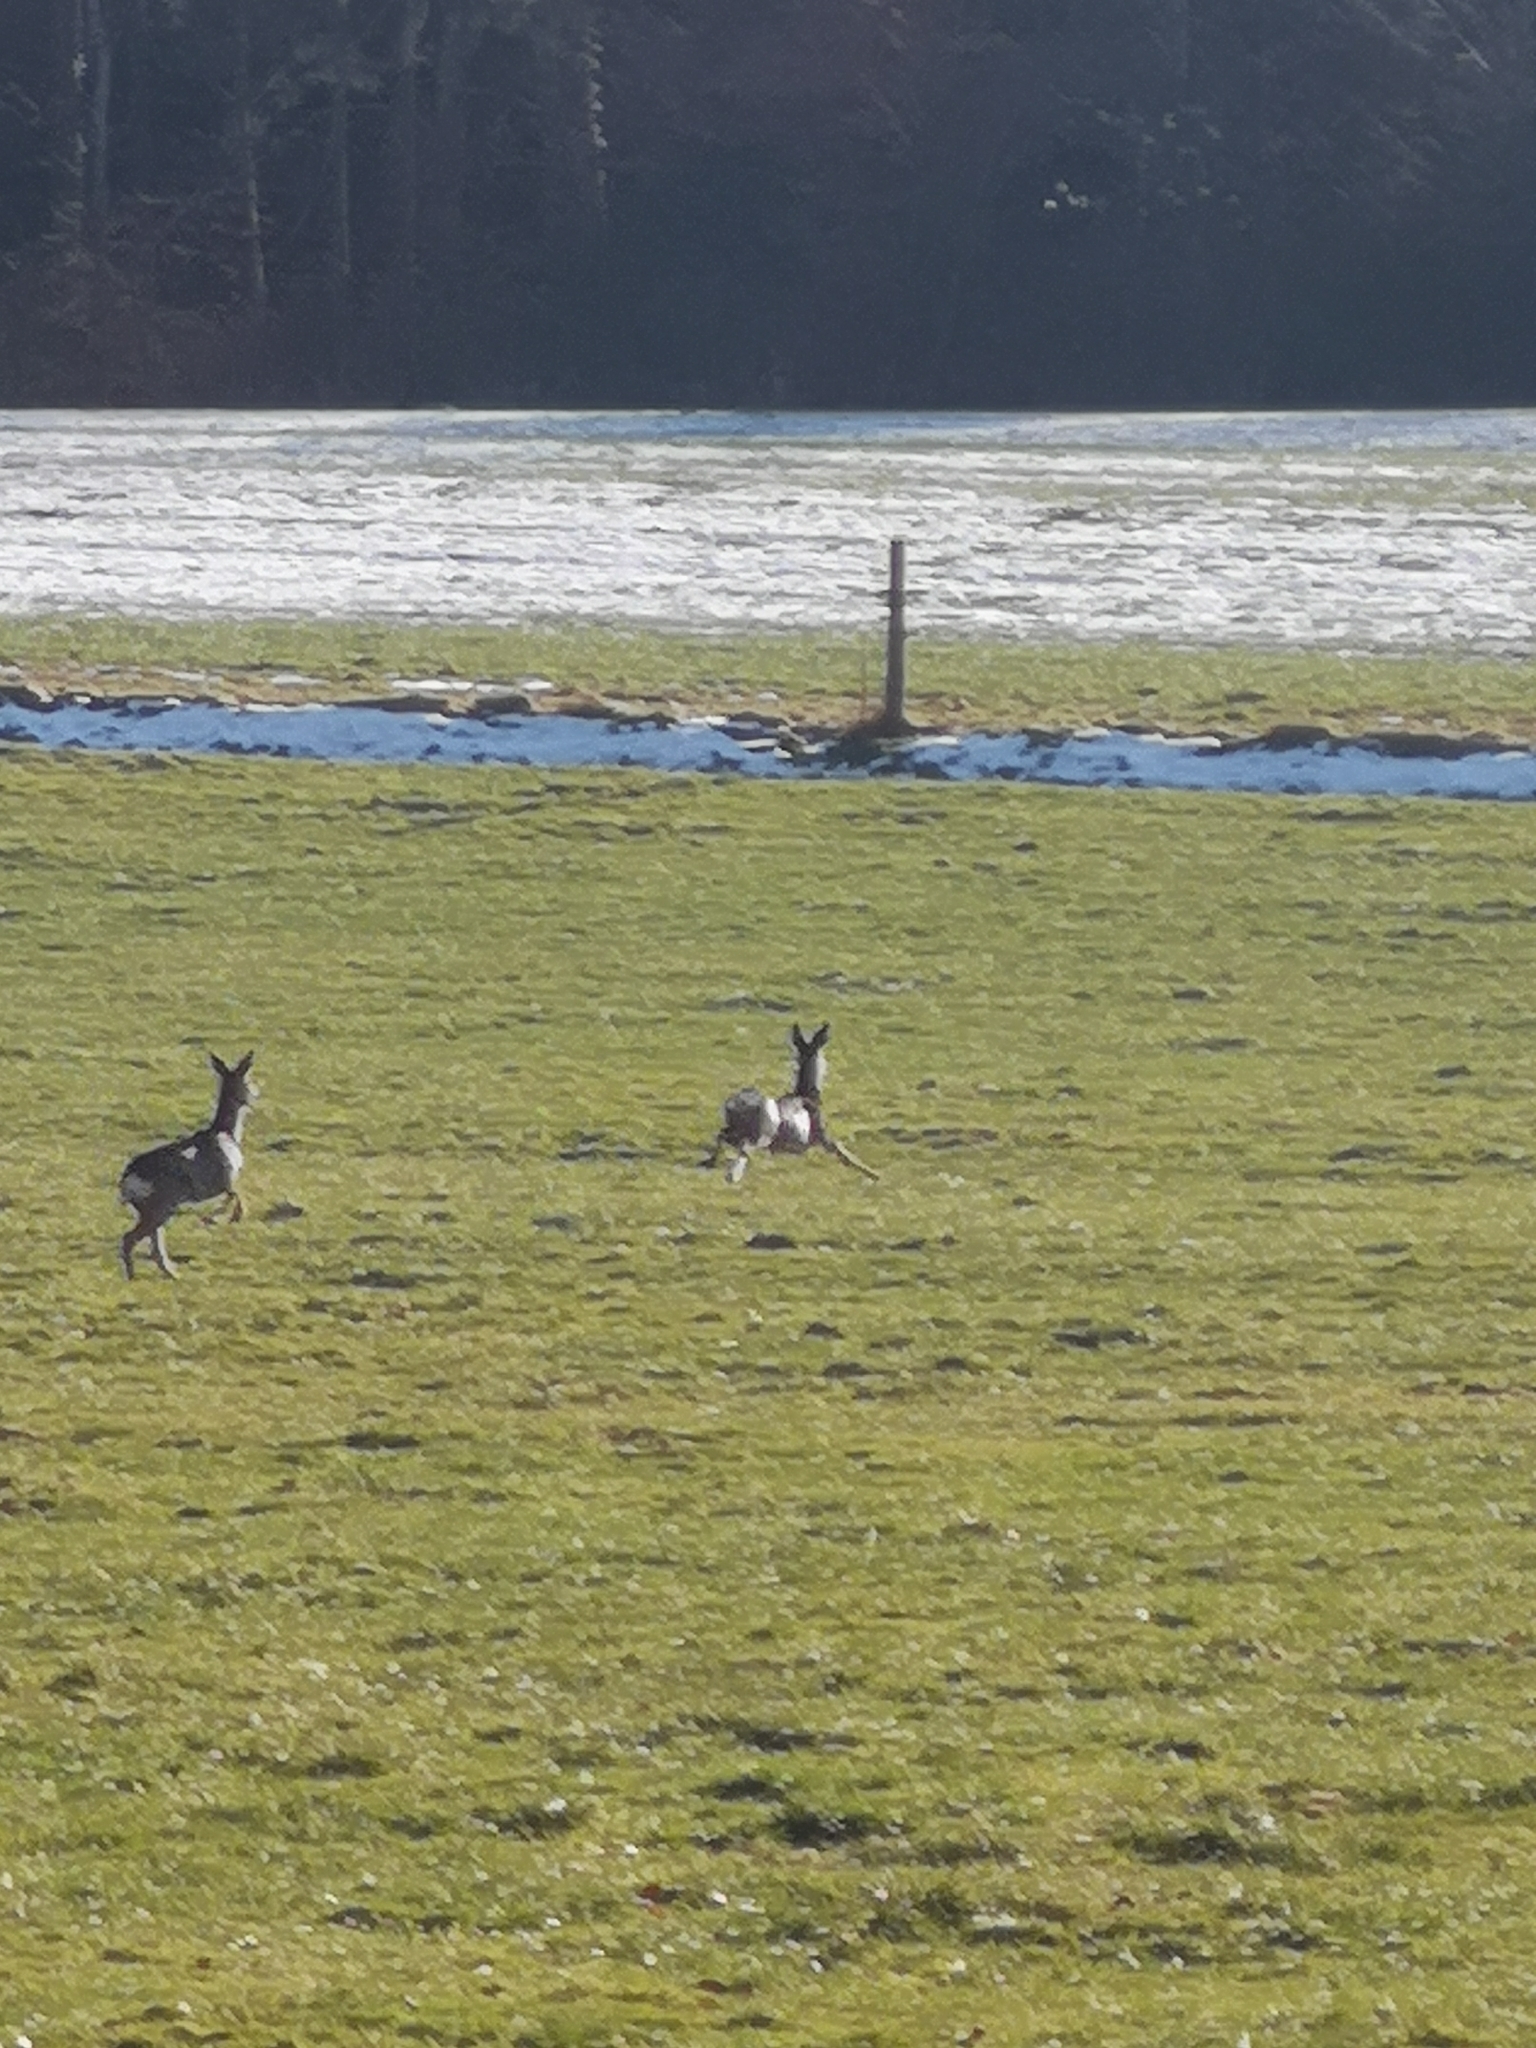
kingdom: Animalia
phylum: Chordata
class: Mammalia
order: Artiodactyla
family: Cervidae
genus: Capreolus
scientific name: Capreolus capreolus
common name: Western roe deer
